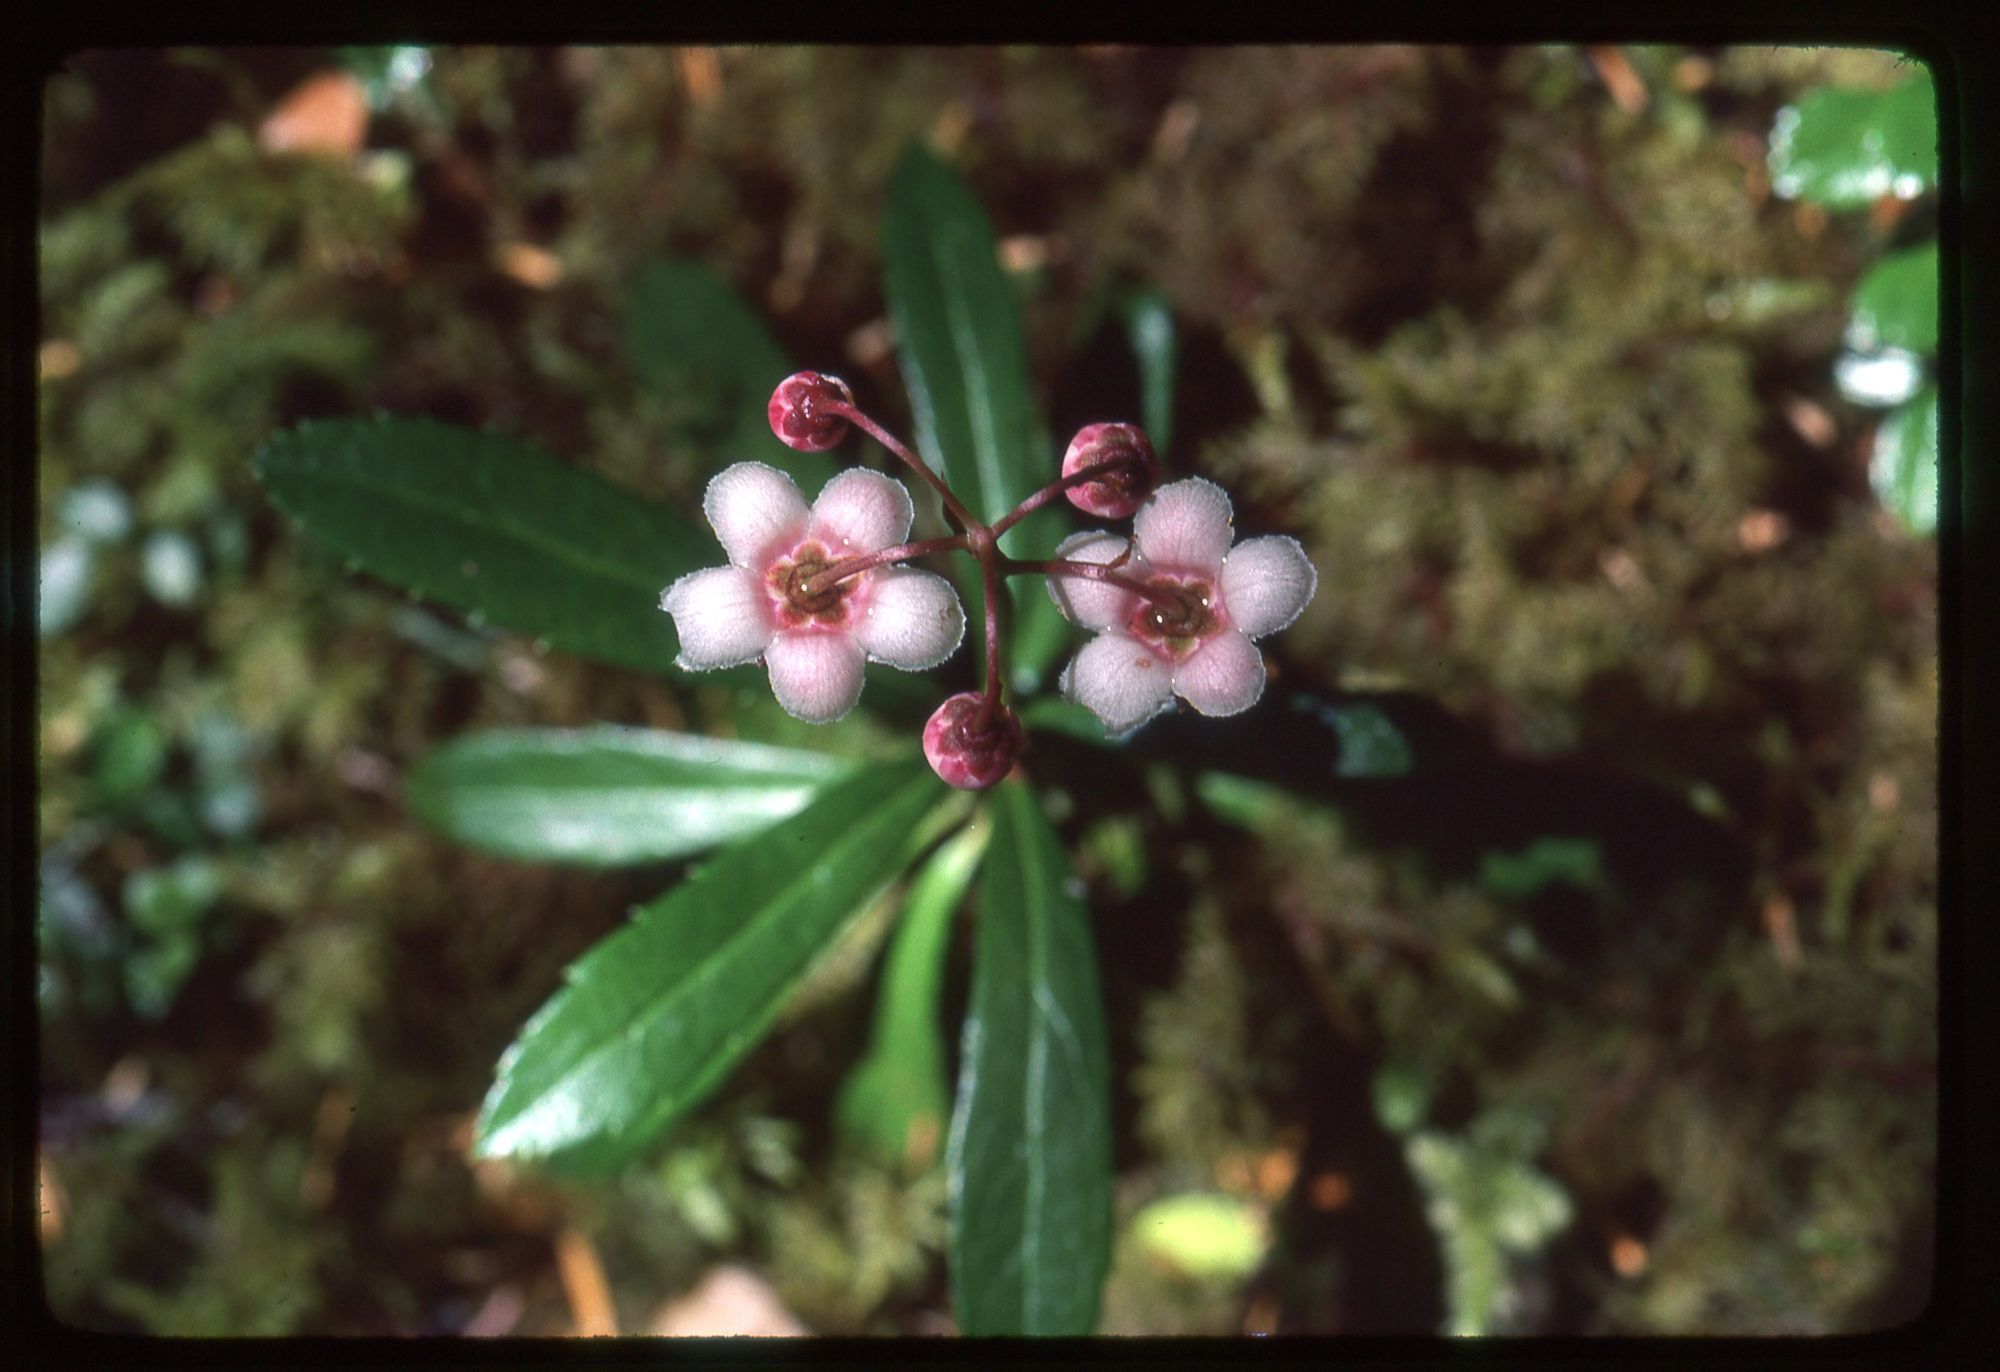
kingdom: Plantae
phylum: Tracheophyta
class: Magnoliopsida
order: Ericales
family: Ericaceae
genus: Chimaphila
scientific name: Chimaphila umbellata
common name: Pipsissewa
